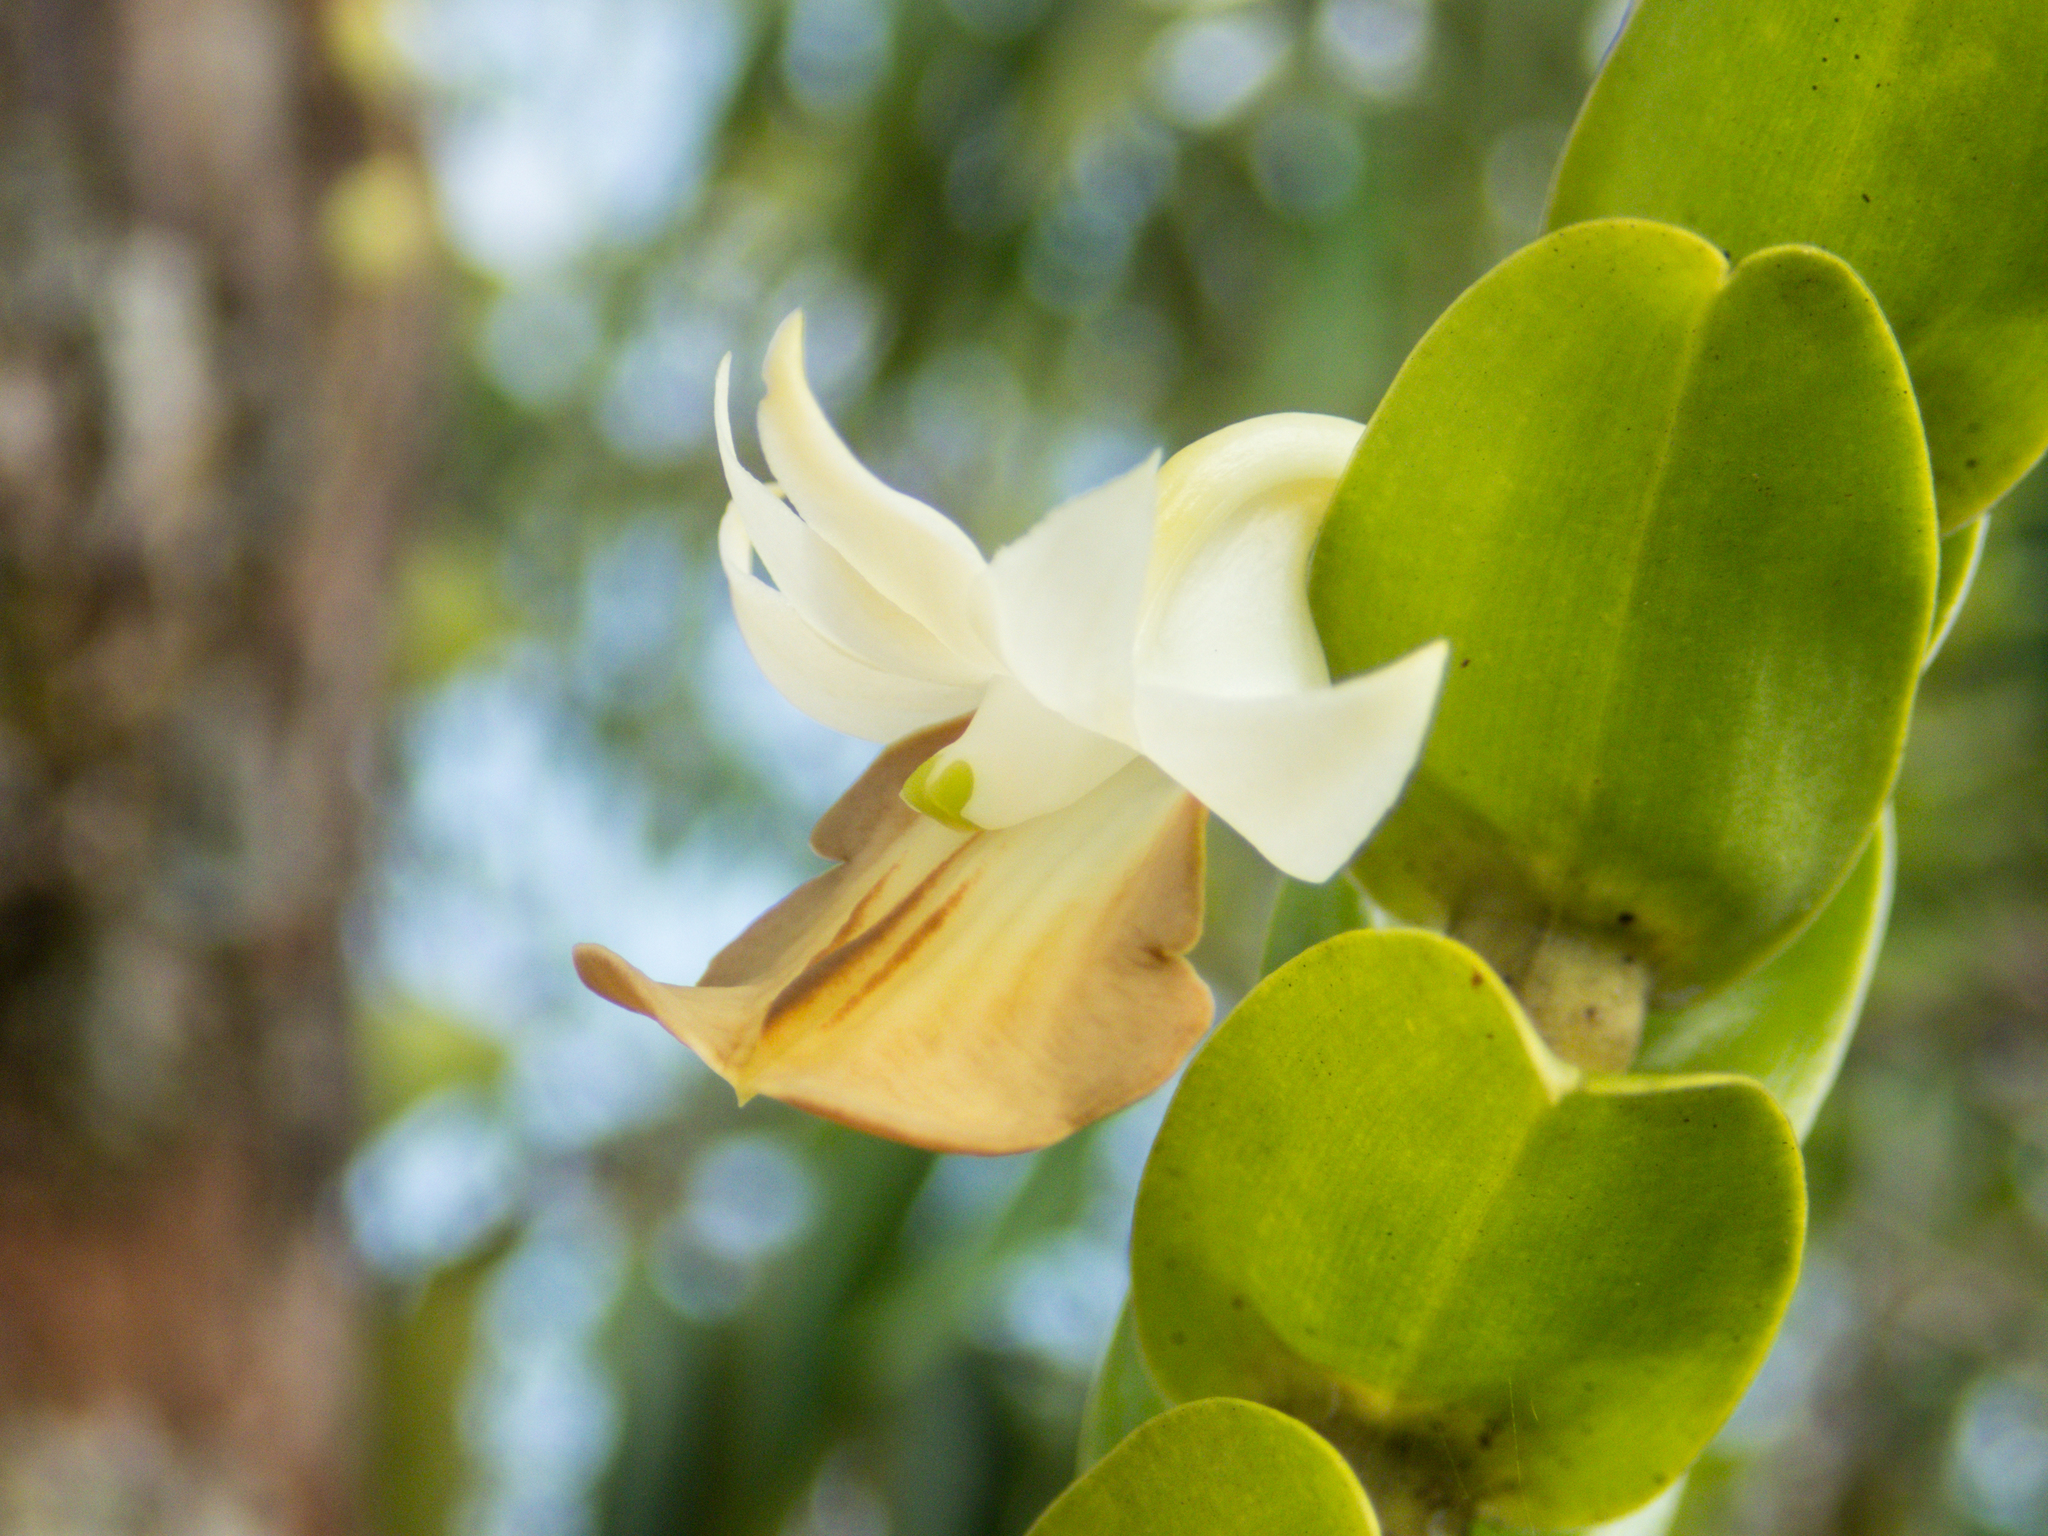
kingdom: Plantae
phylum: Tracheophyta
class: Liliopsida
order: Asparagales
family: Orchidaceae
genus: Dendrobium
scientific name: Dendrobium ellipsophyllum
